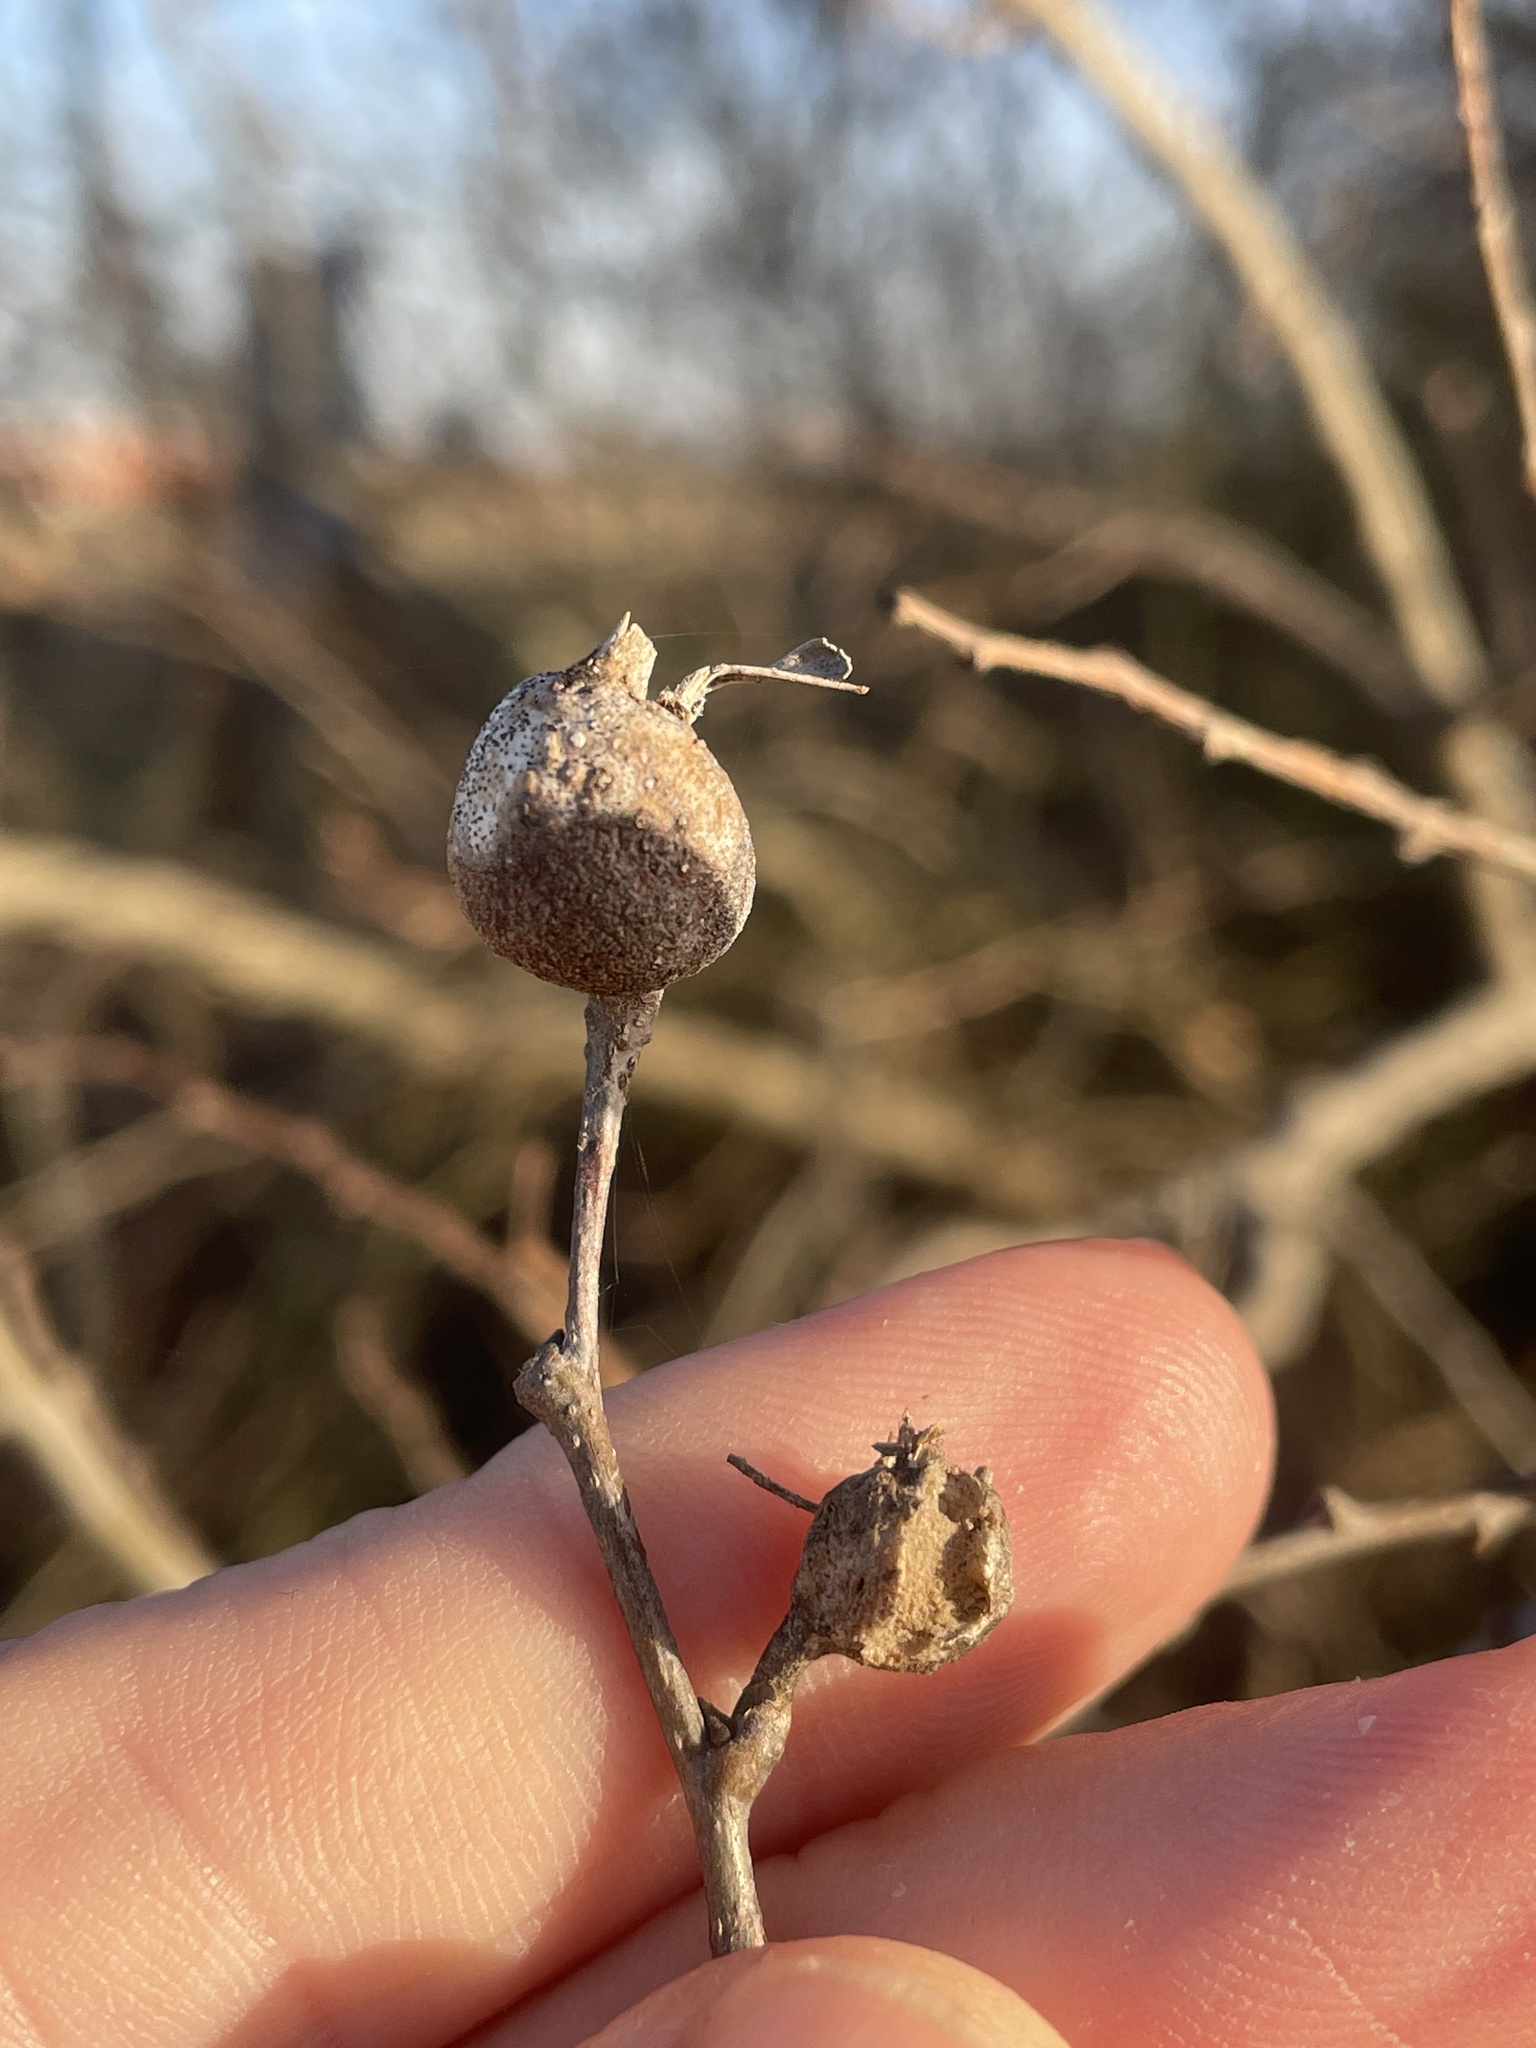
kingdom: Animalia
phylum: Arthropoda
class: Insecta
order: Hemiptera
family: Aphalaridae
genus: Pachypsylla
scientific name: Pachypsylla venusta
